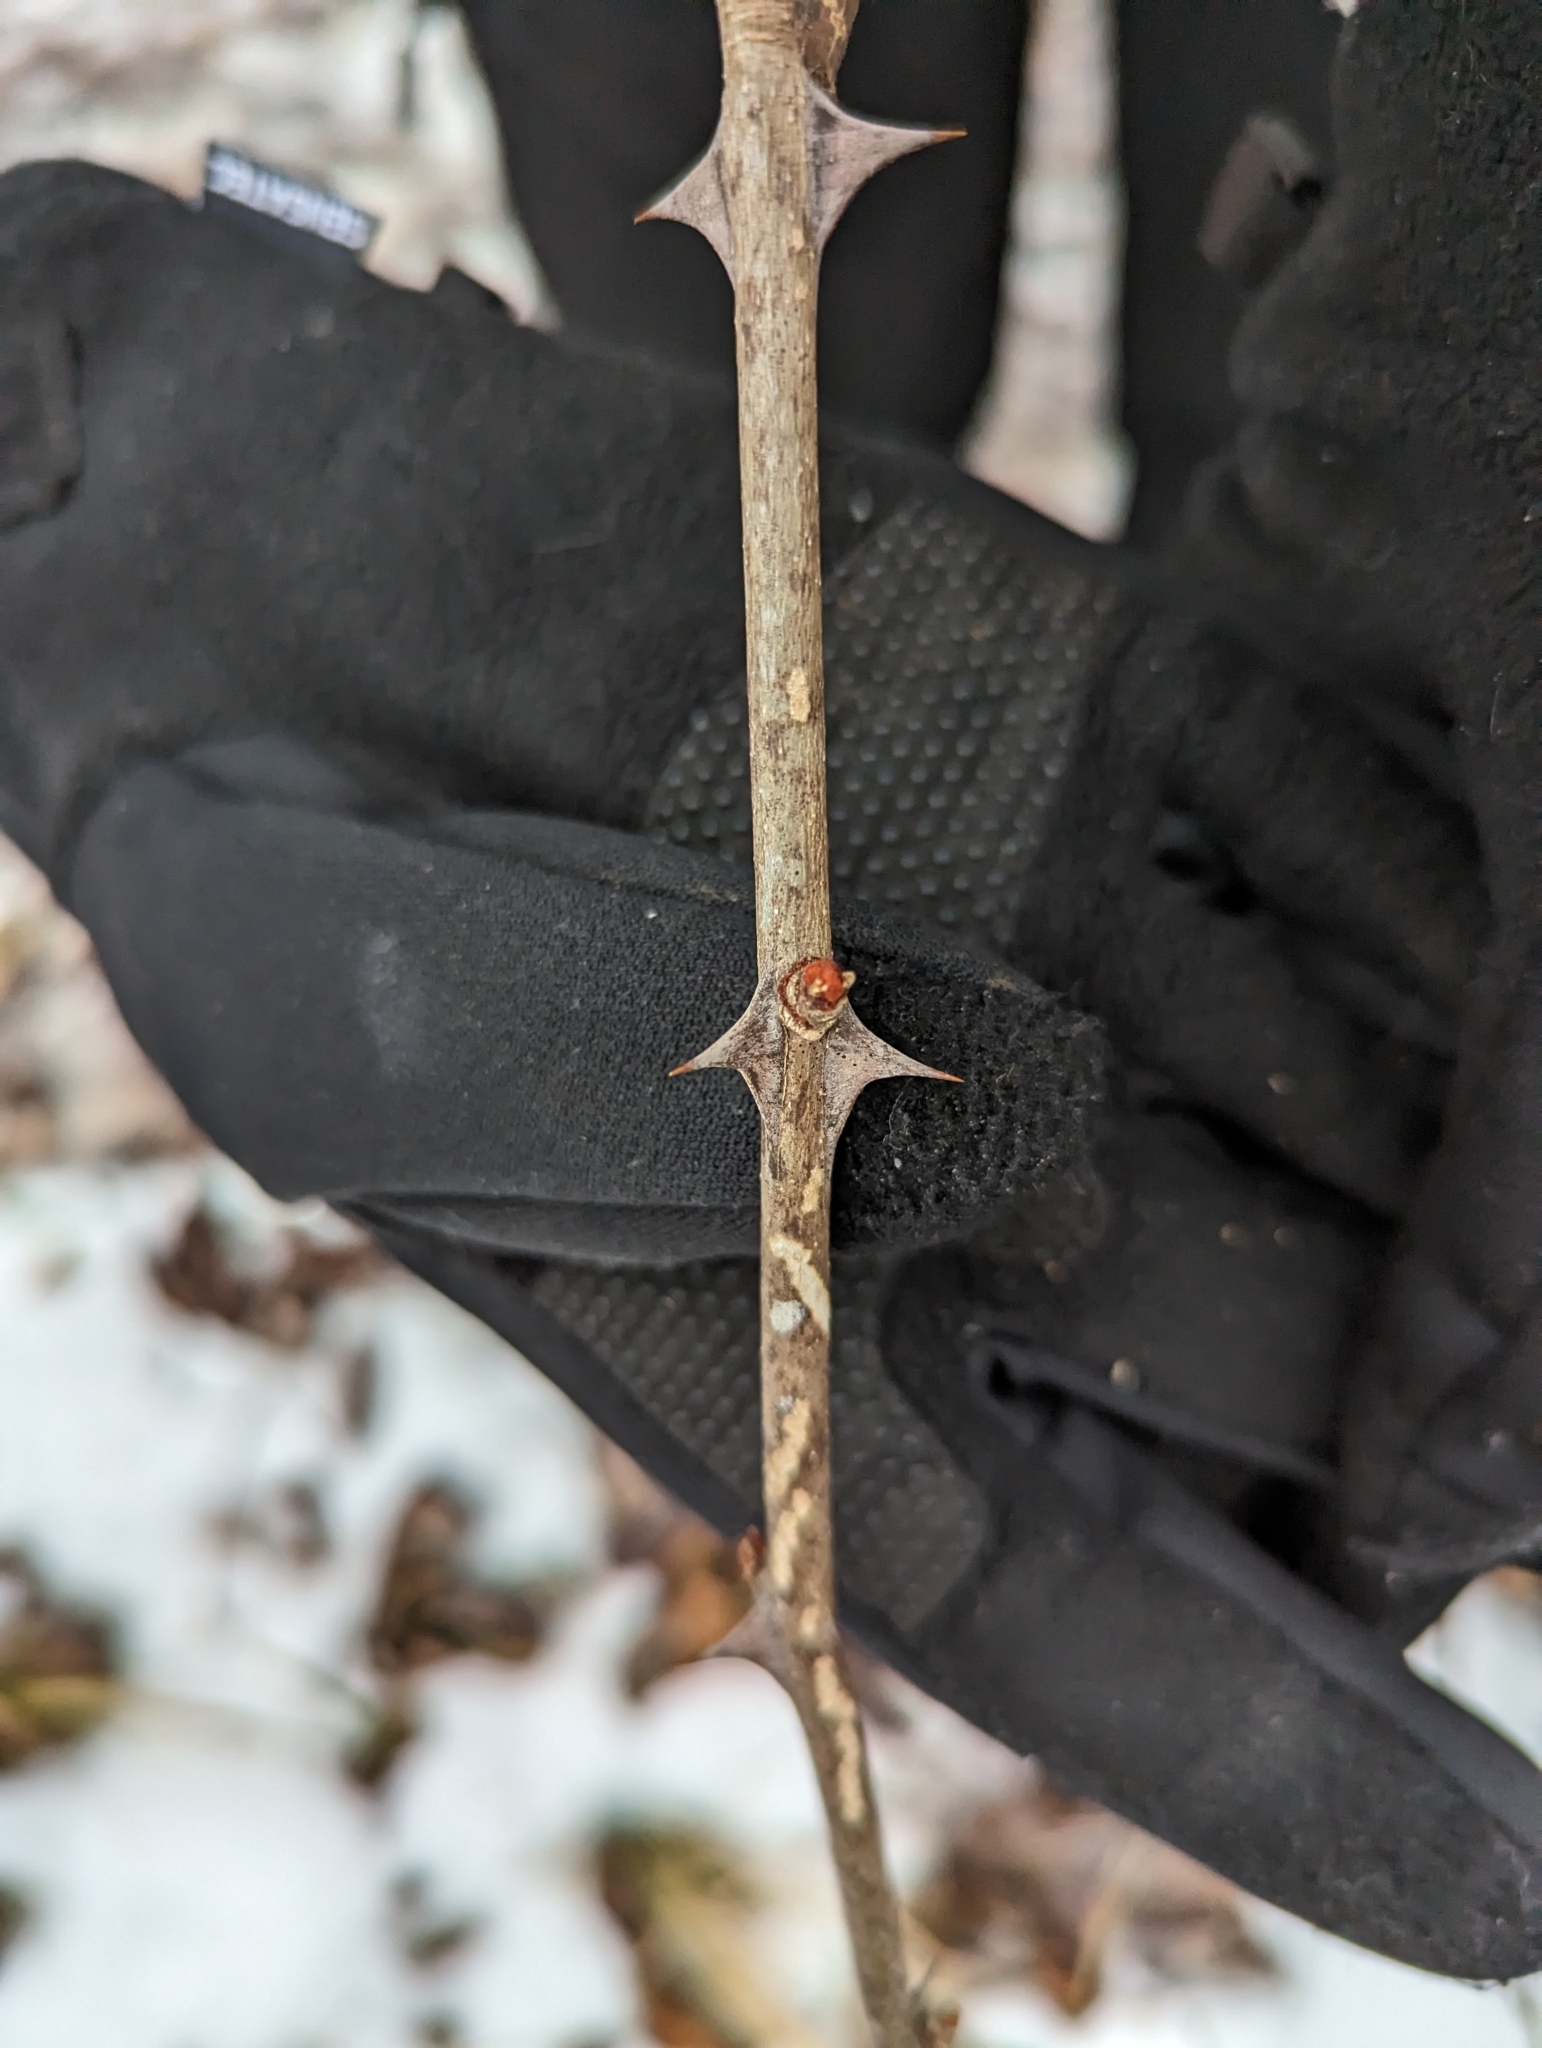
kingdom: Plantae
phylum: Tracheophyta
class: Magnoliopsida
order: Sapindales
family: Rutaceae
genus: Zanthoxylum
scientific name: Zanthoxylum americanum
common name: Northern prickly-ash
